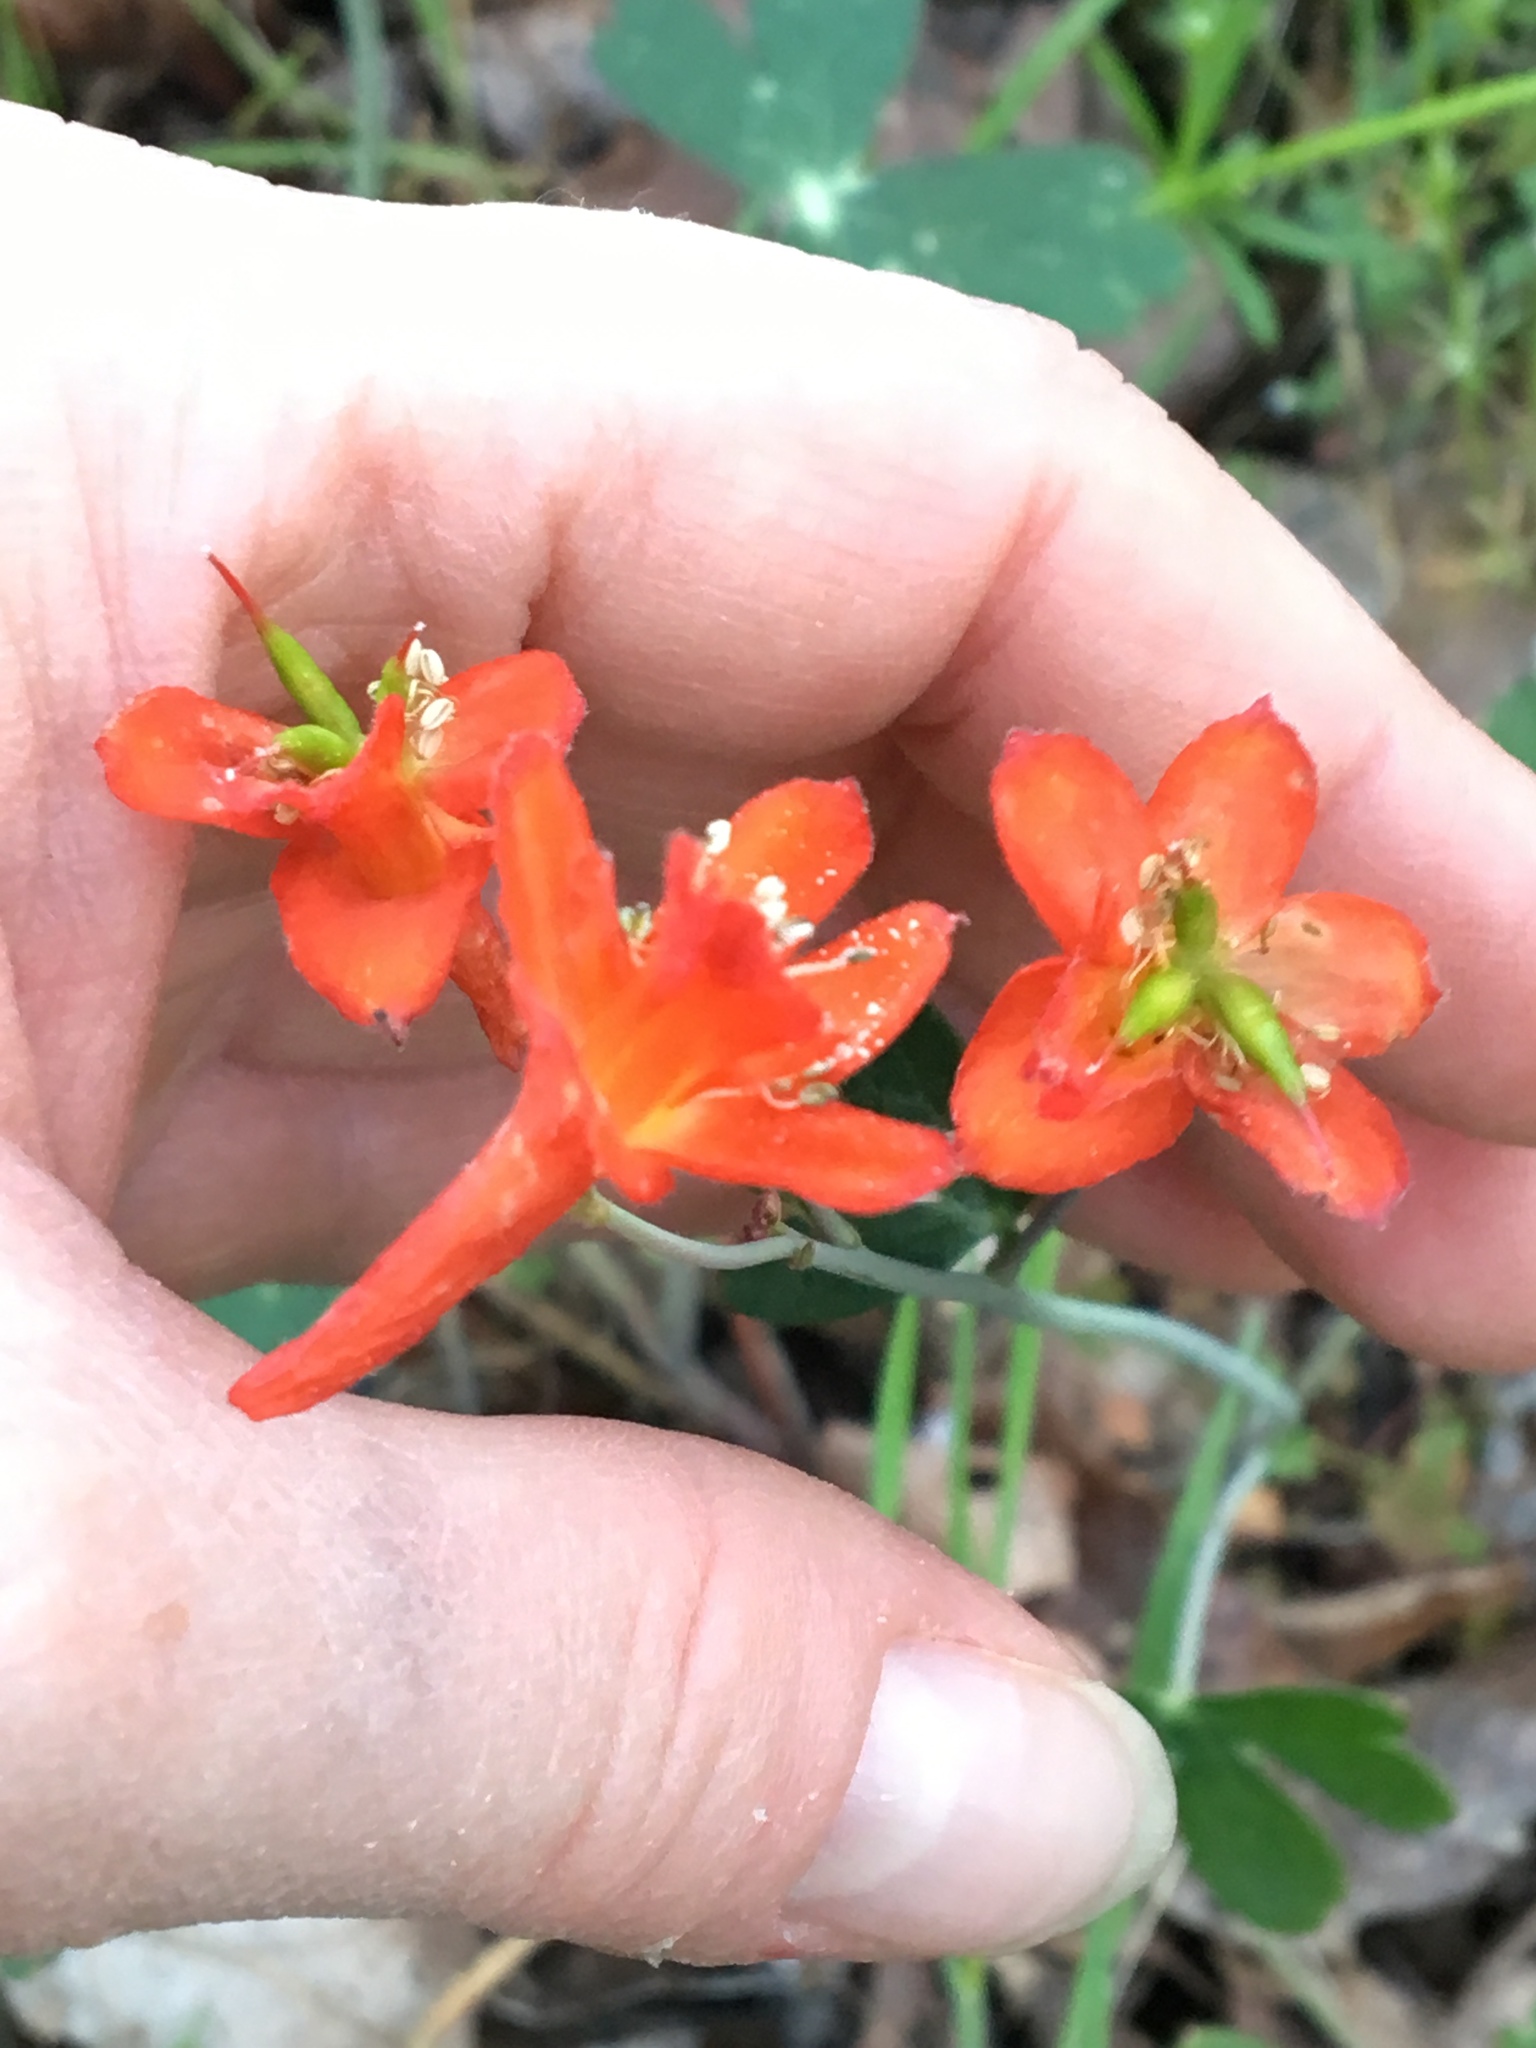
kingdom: Plantae
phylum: Tracheophyta
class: Magnoliopsida
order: Ranunculales
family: Ranunculaceae
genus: Delphinium
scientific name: Delphinium nudicaule
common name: Red larkspur
